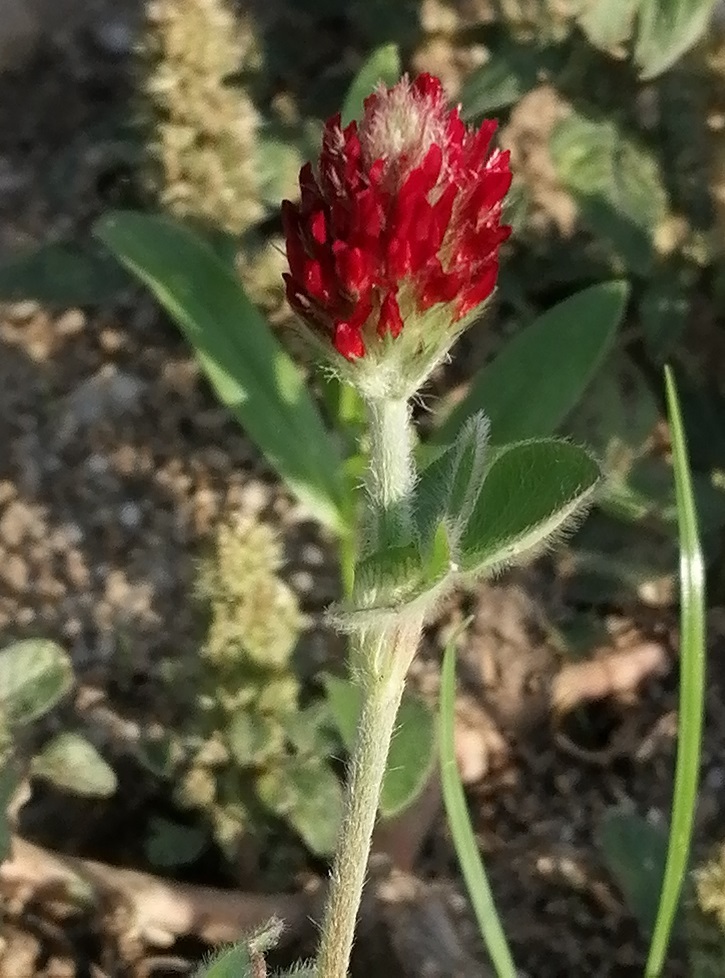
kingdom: Plantae
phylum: Tracheophyta
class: Magnoliopsida
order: Fabales
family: Fabaceae
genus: Trifolium
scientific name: Trifolium incarnatum
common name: Crimson clover
